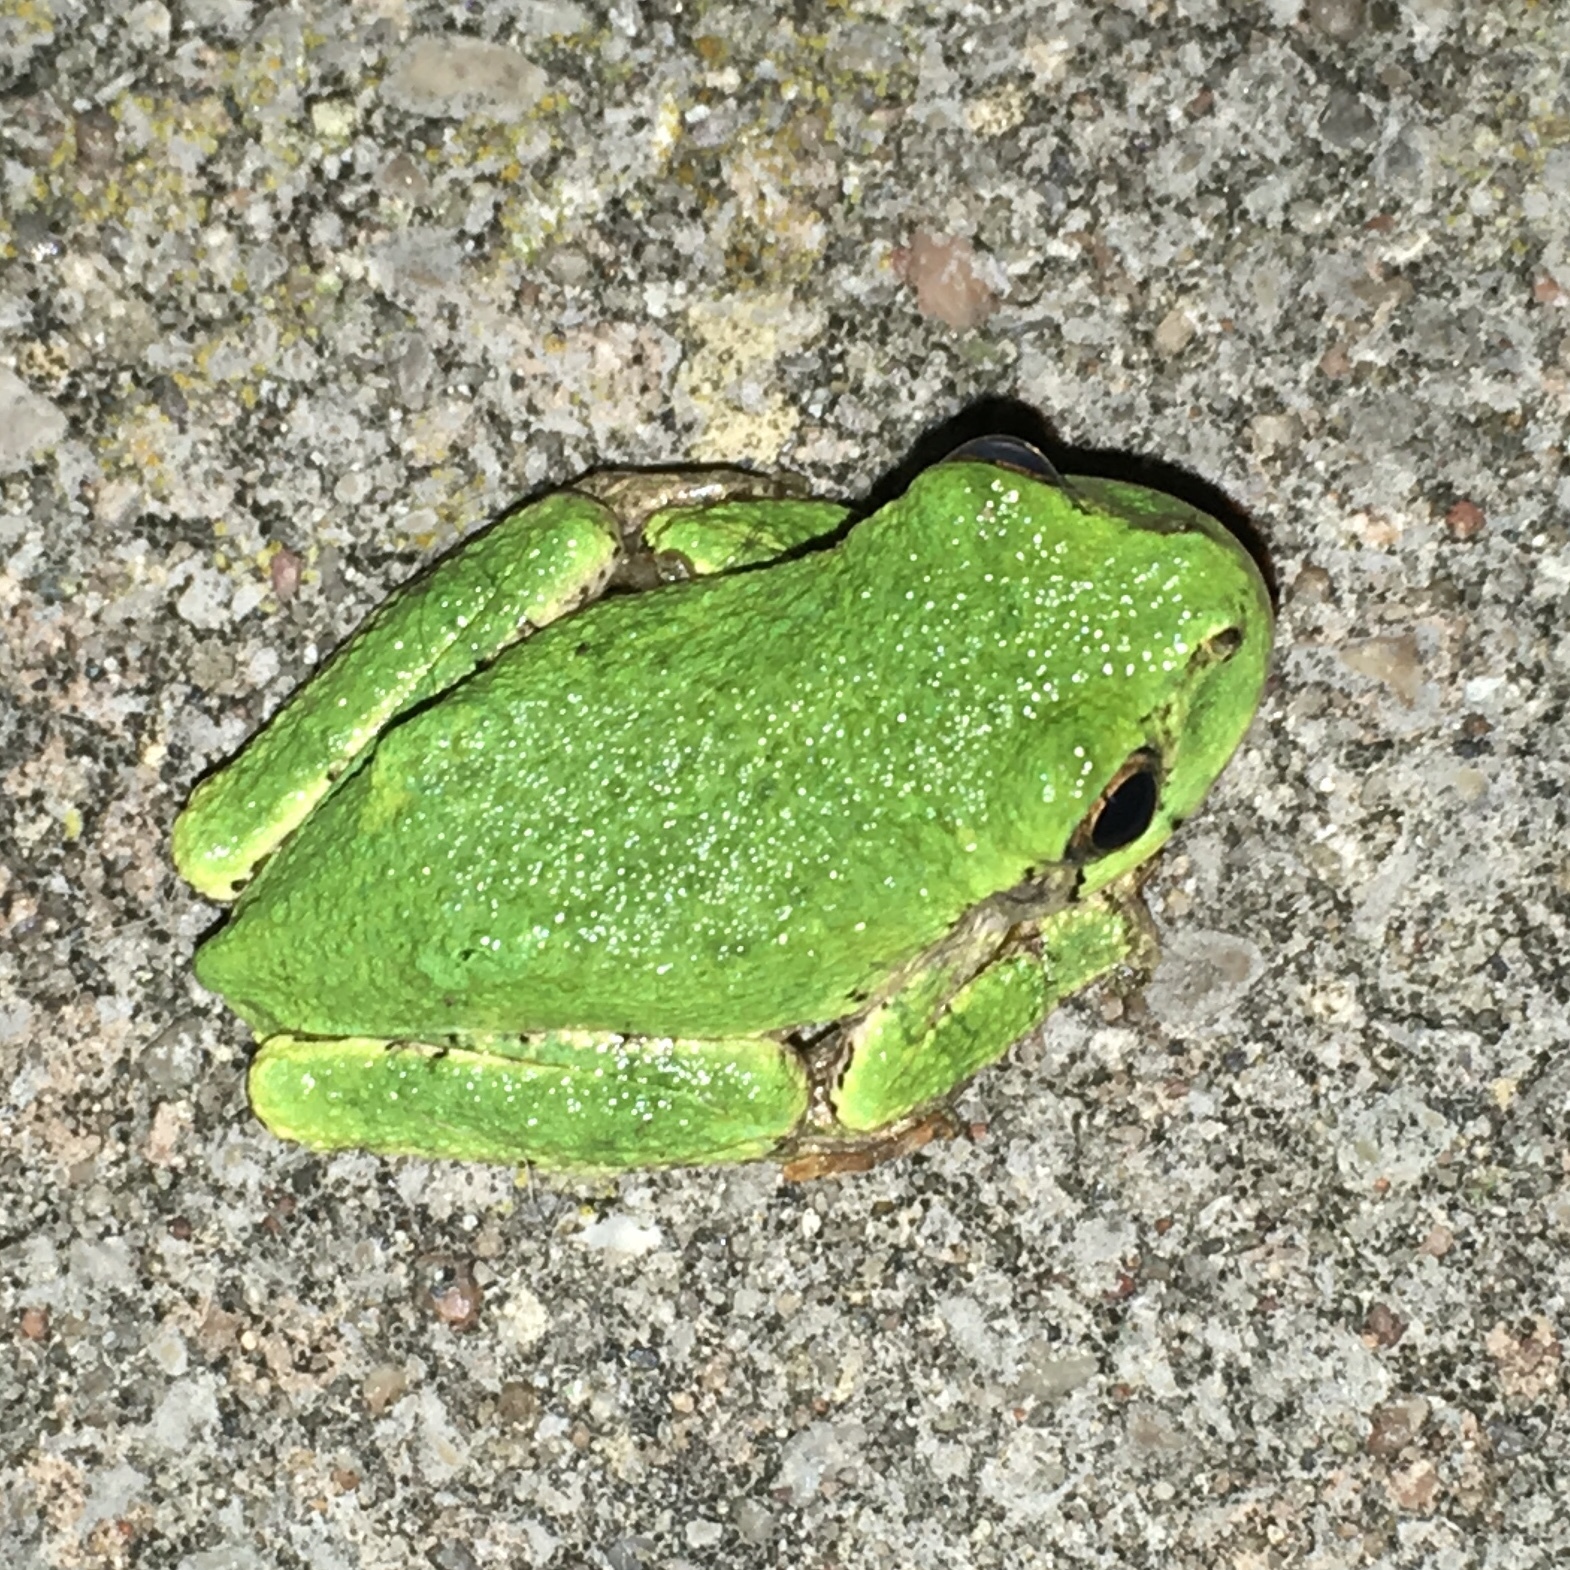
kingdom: Animalia
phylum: Chordata
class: Amphibia
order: Anura
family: Hylidae
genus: Dryophytes
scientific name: Dryophytes versicolor
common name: Gray treefrog
